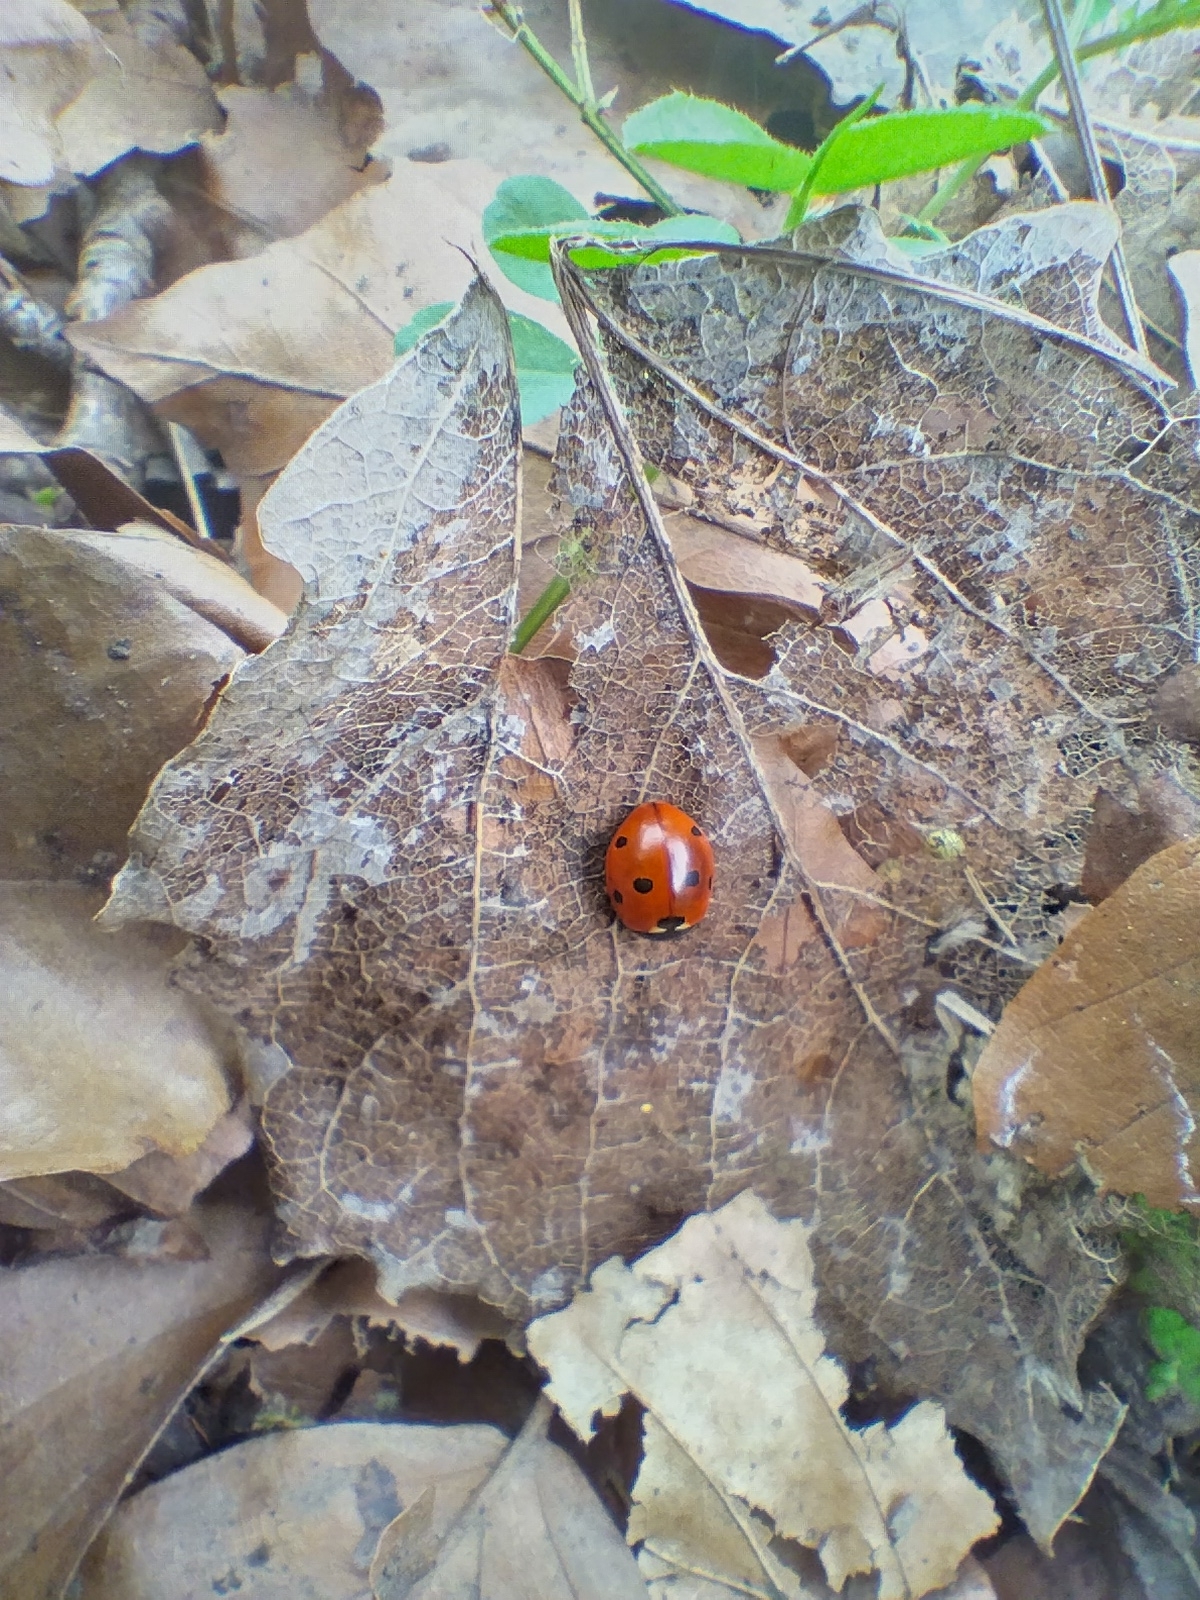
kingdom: Animalia
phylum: Arthropoda
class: Insecta
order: Coleoptera
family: Coccinellidae
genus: Coccinella
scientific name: Coccinella septempunctata
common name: Sevenspotted lady beetle
